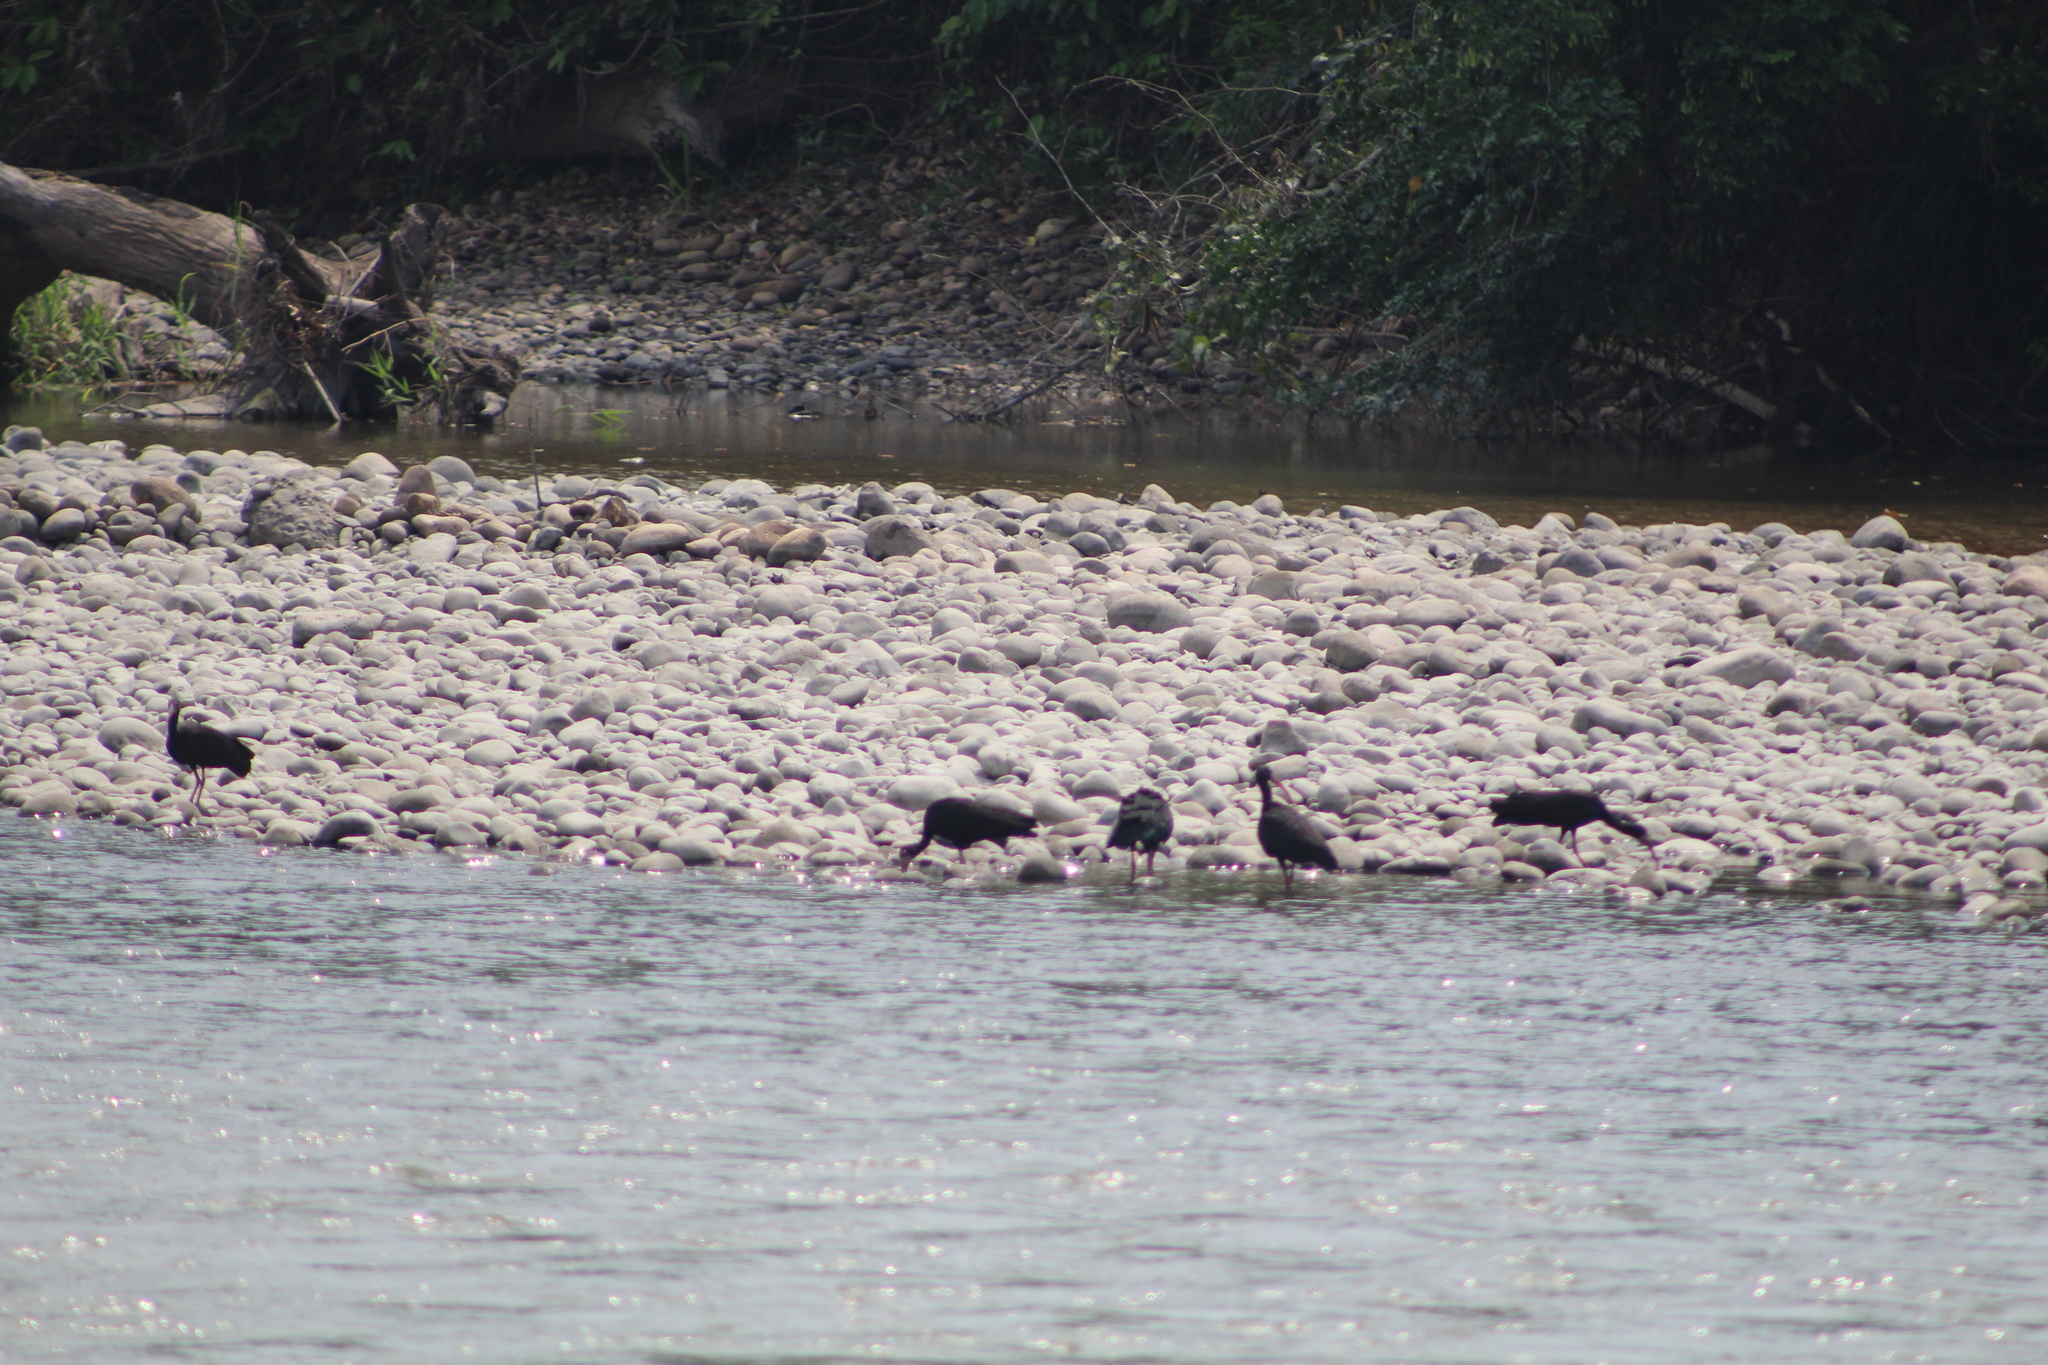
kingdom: Animalia
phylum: Chordata
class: Aves
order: Pelecaniformes
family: Threskiornithidae
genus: Phimosus
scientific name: Phimosus infuscatus
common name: Bare-faced ibis
